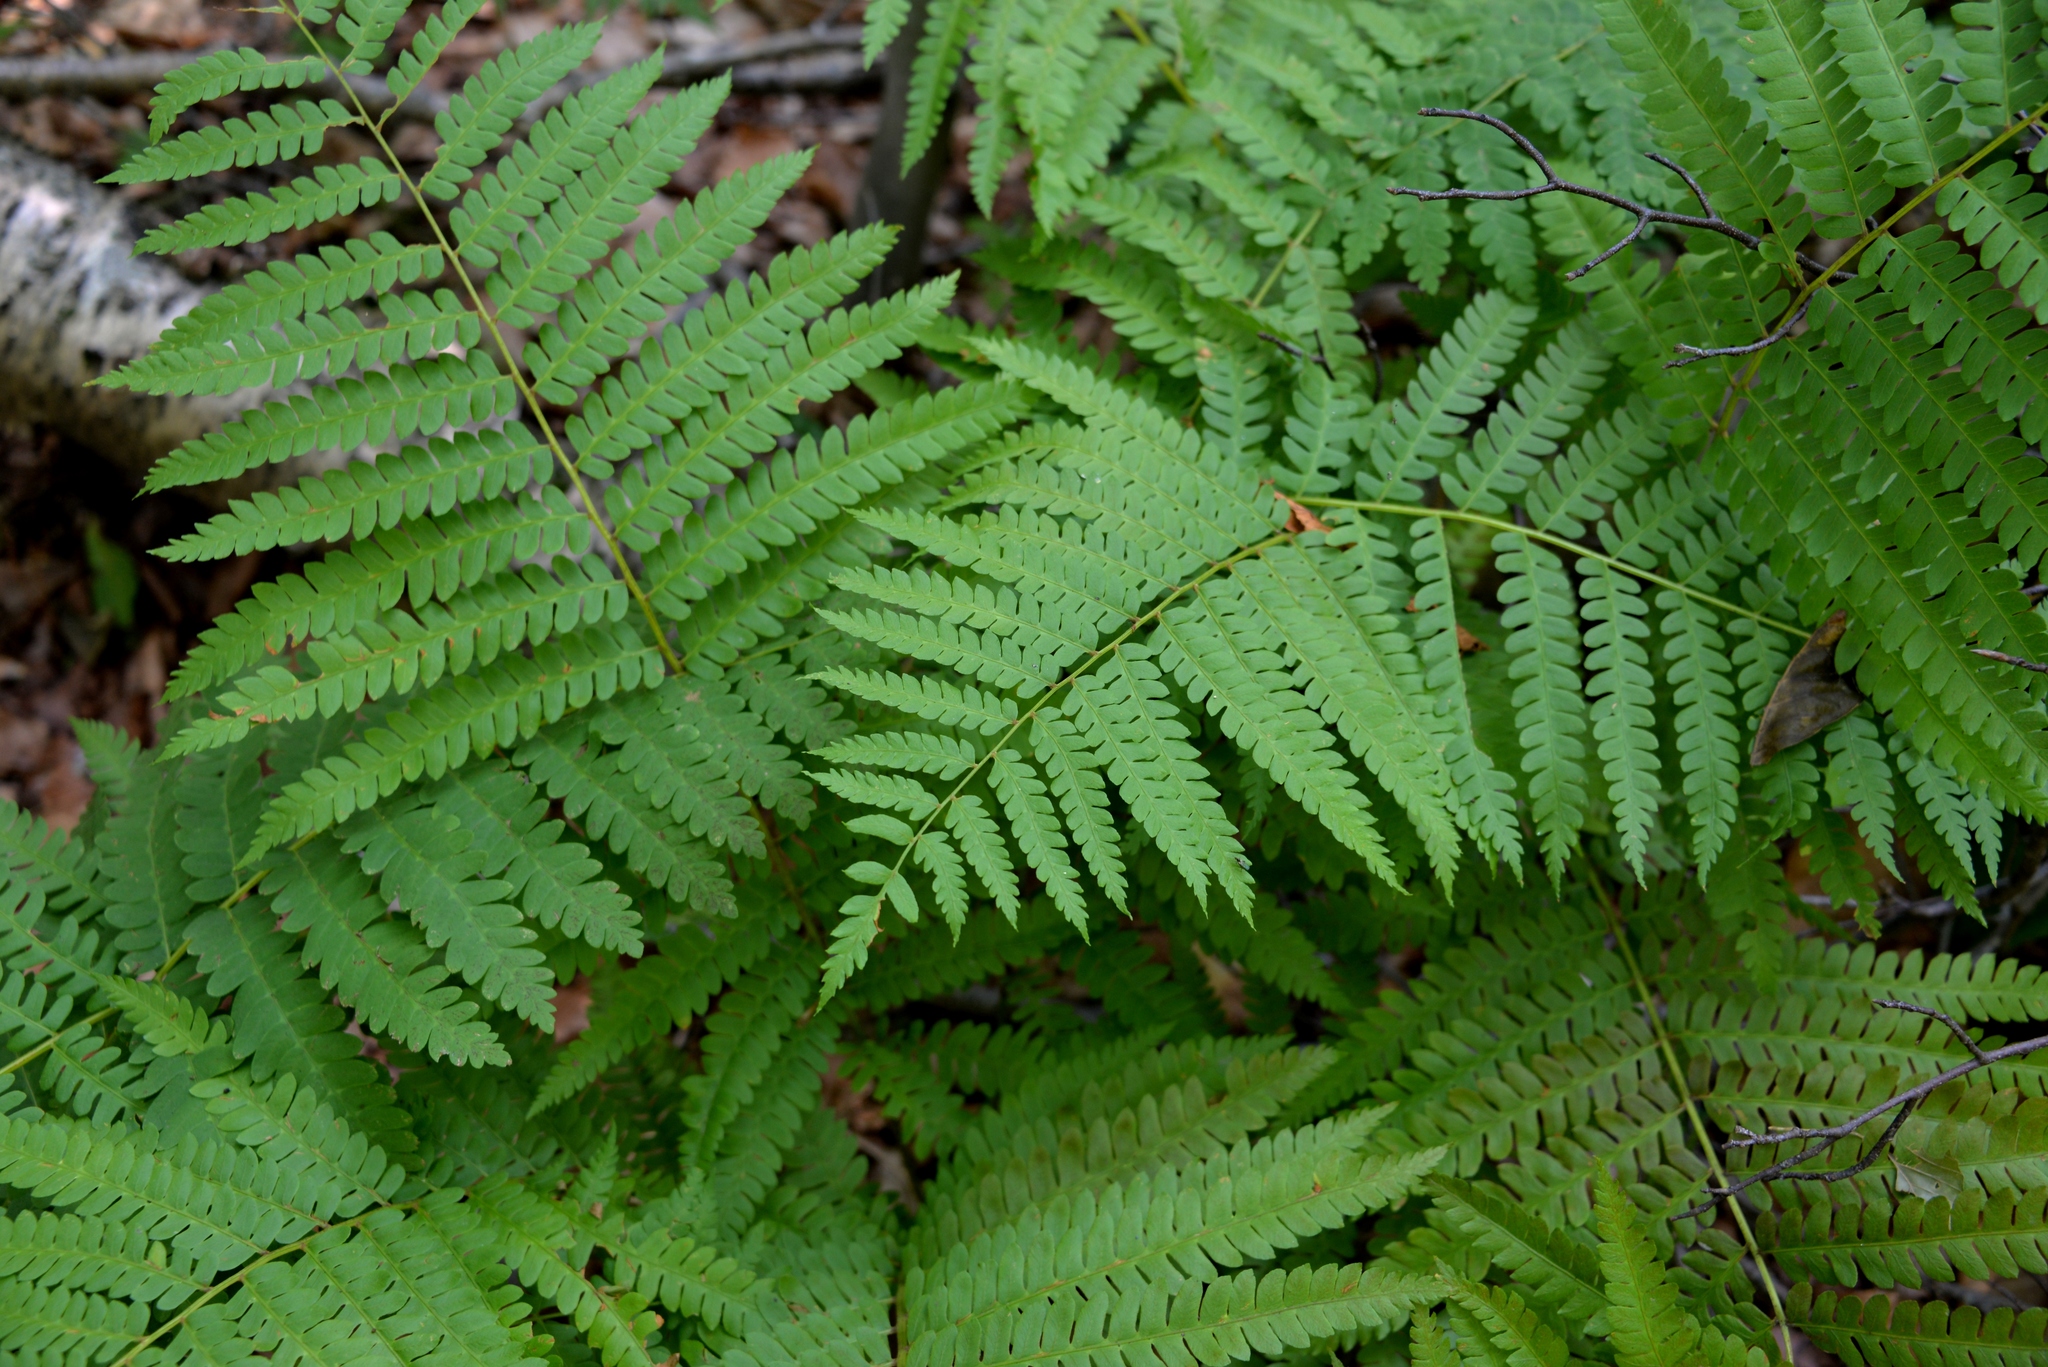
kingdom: Plantae
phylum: Tracheophyta
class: Polypodiopsida
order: Osmundales
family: Osmundaceae
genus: Osmundastrum
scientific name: Osmundastrum cinnamomeum
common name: Cinnamon fern
